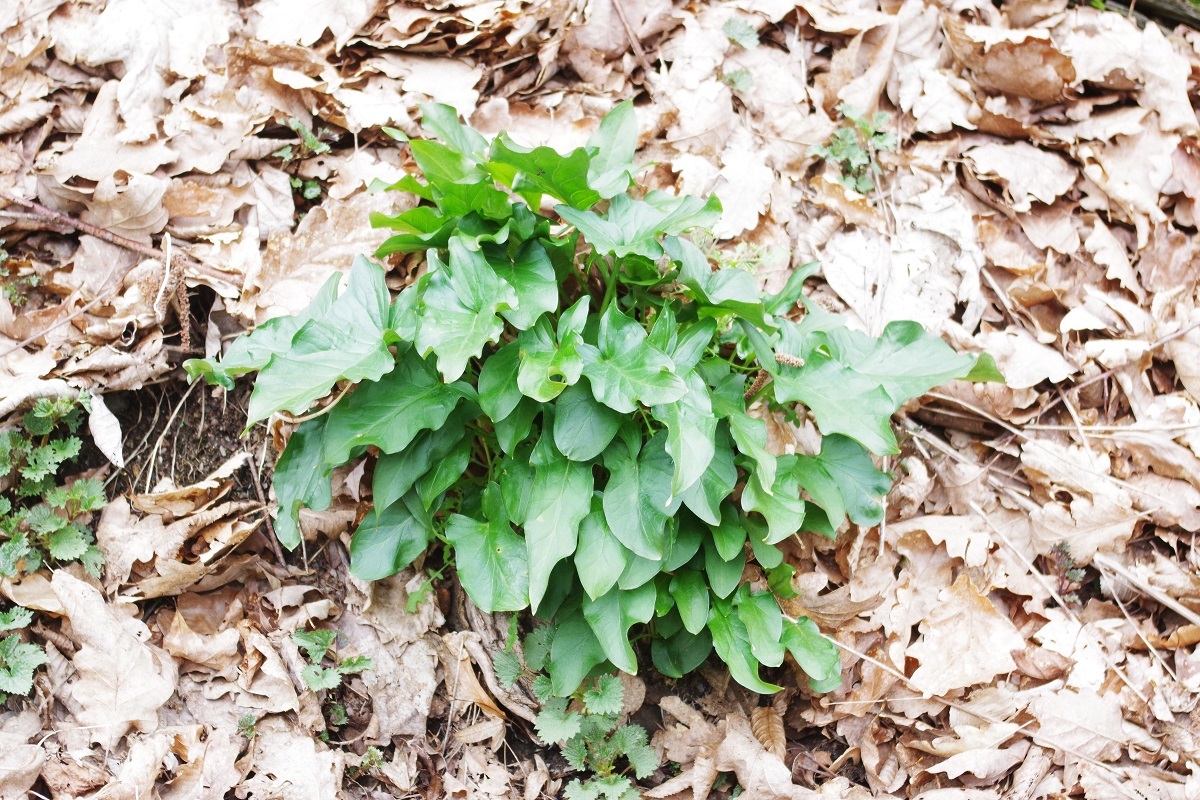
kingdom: Plantae
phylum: Tracheophyta
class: Liliopsida
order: Alismatales
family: Araceae
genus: Arum
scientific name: Arum maculatum
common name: Lords-and-ladies
